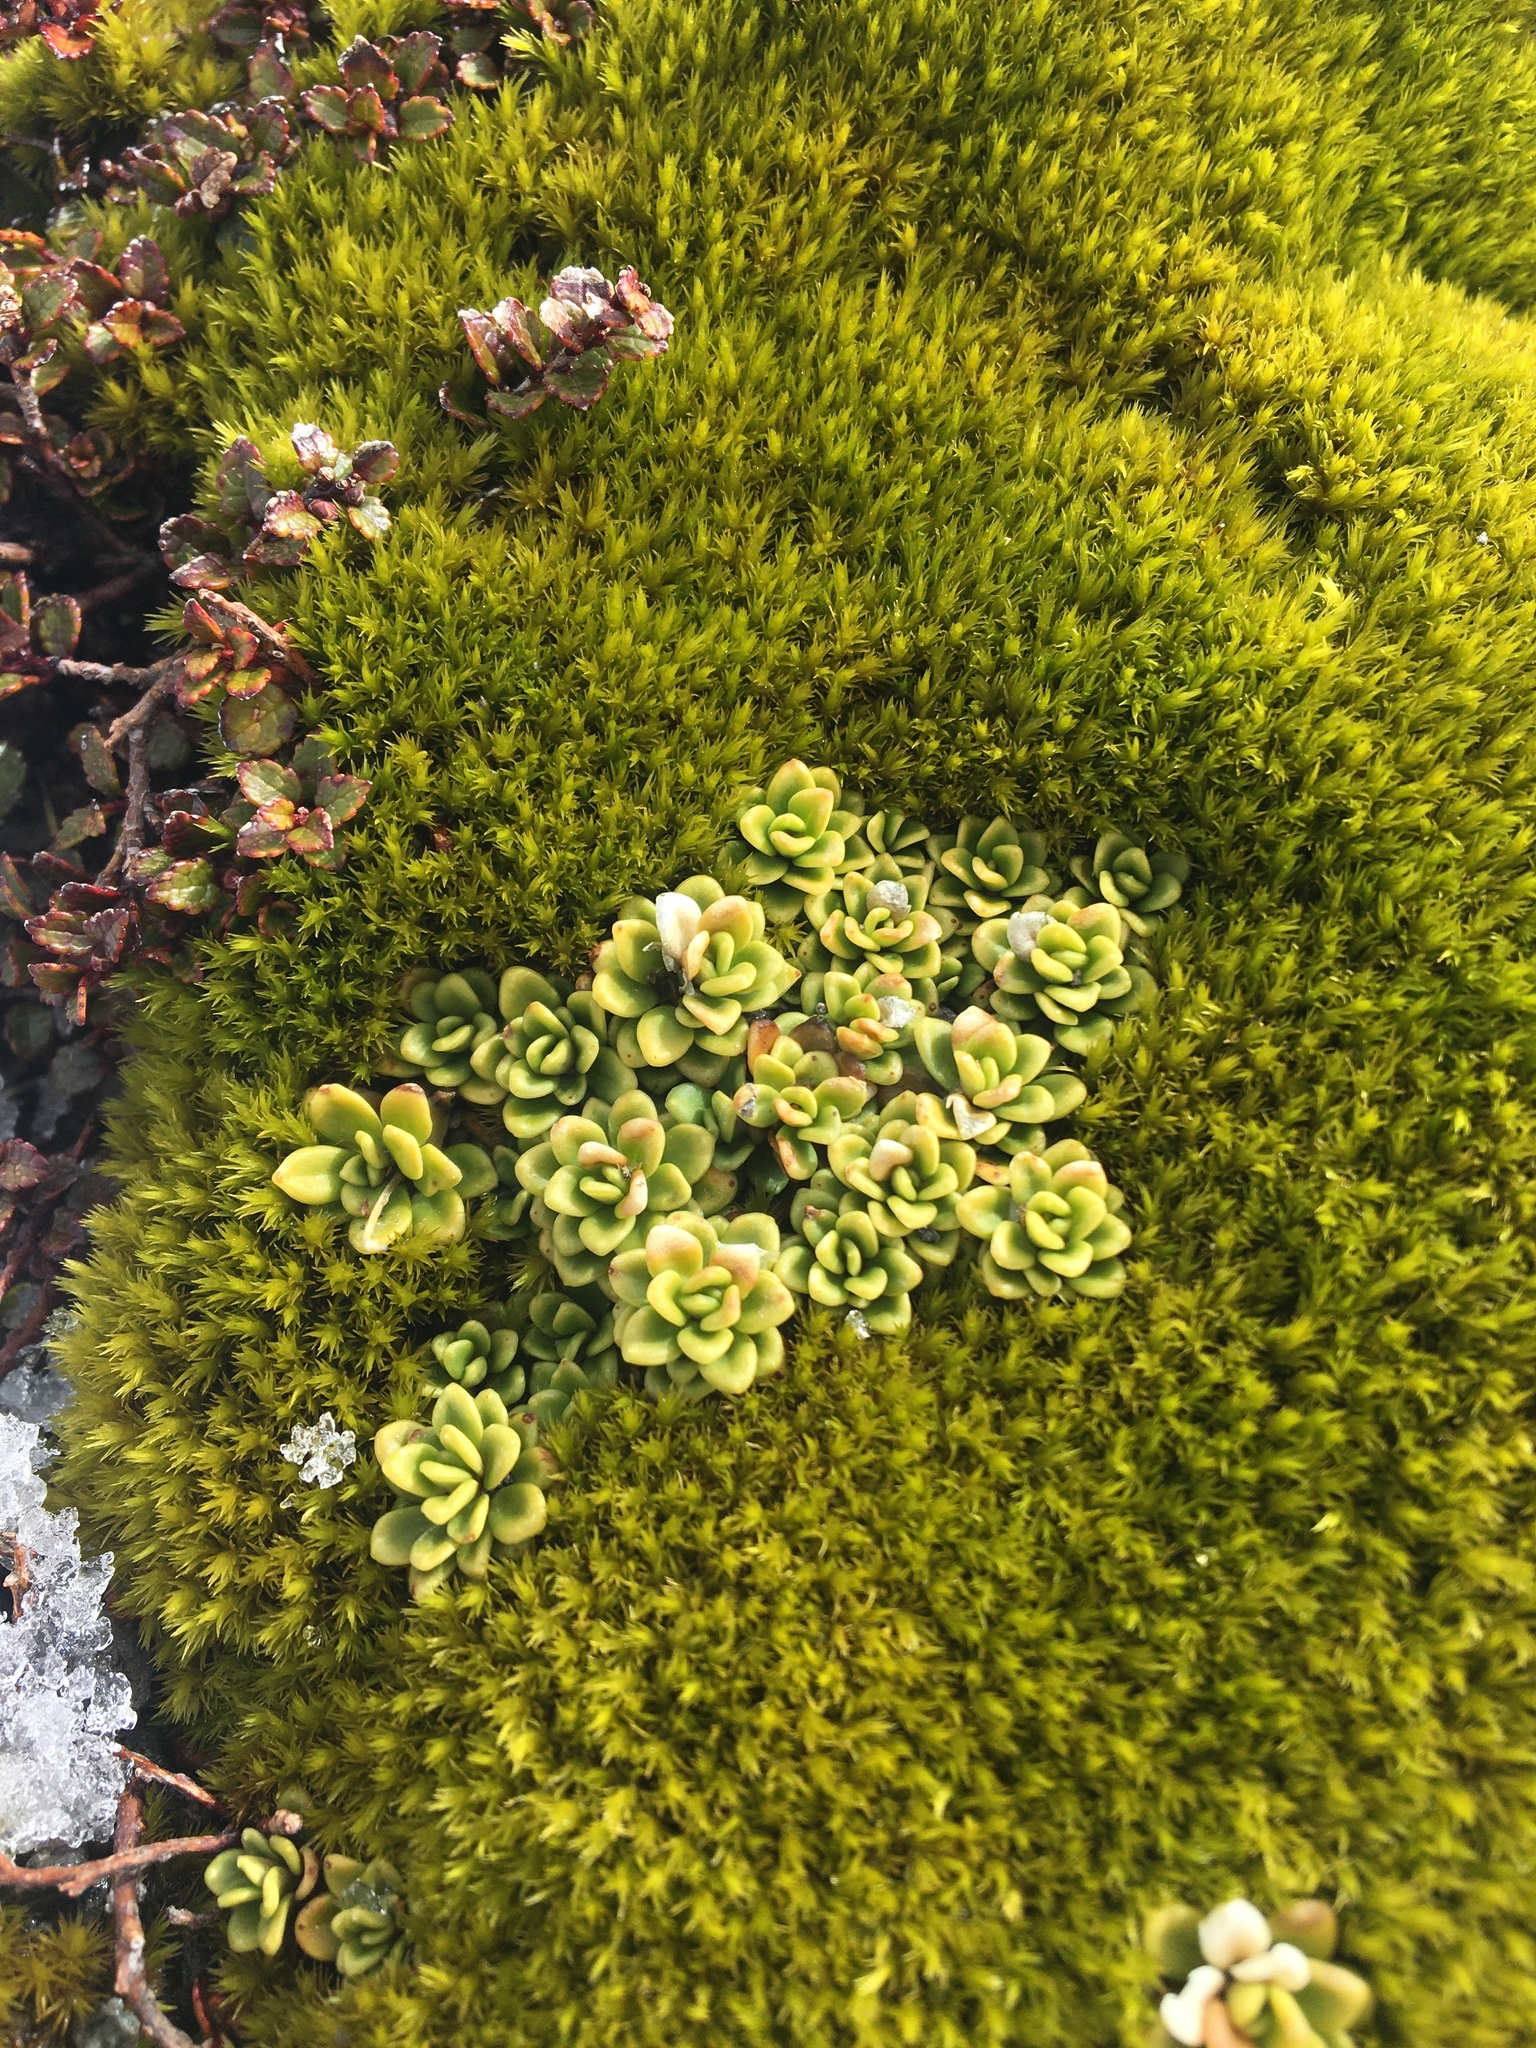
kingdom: Plantae
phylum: Tracheophyta
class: Magnoliopsida
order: Asterales
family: Stylidiaceae
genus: Forstera
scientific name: Forstera tenella
